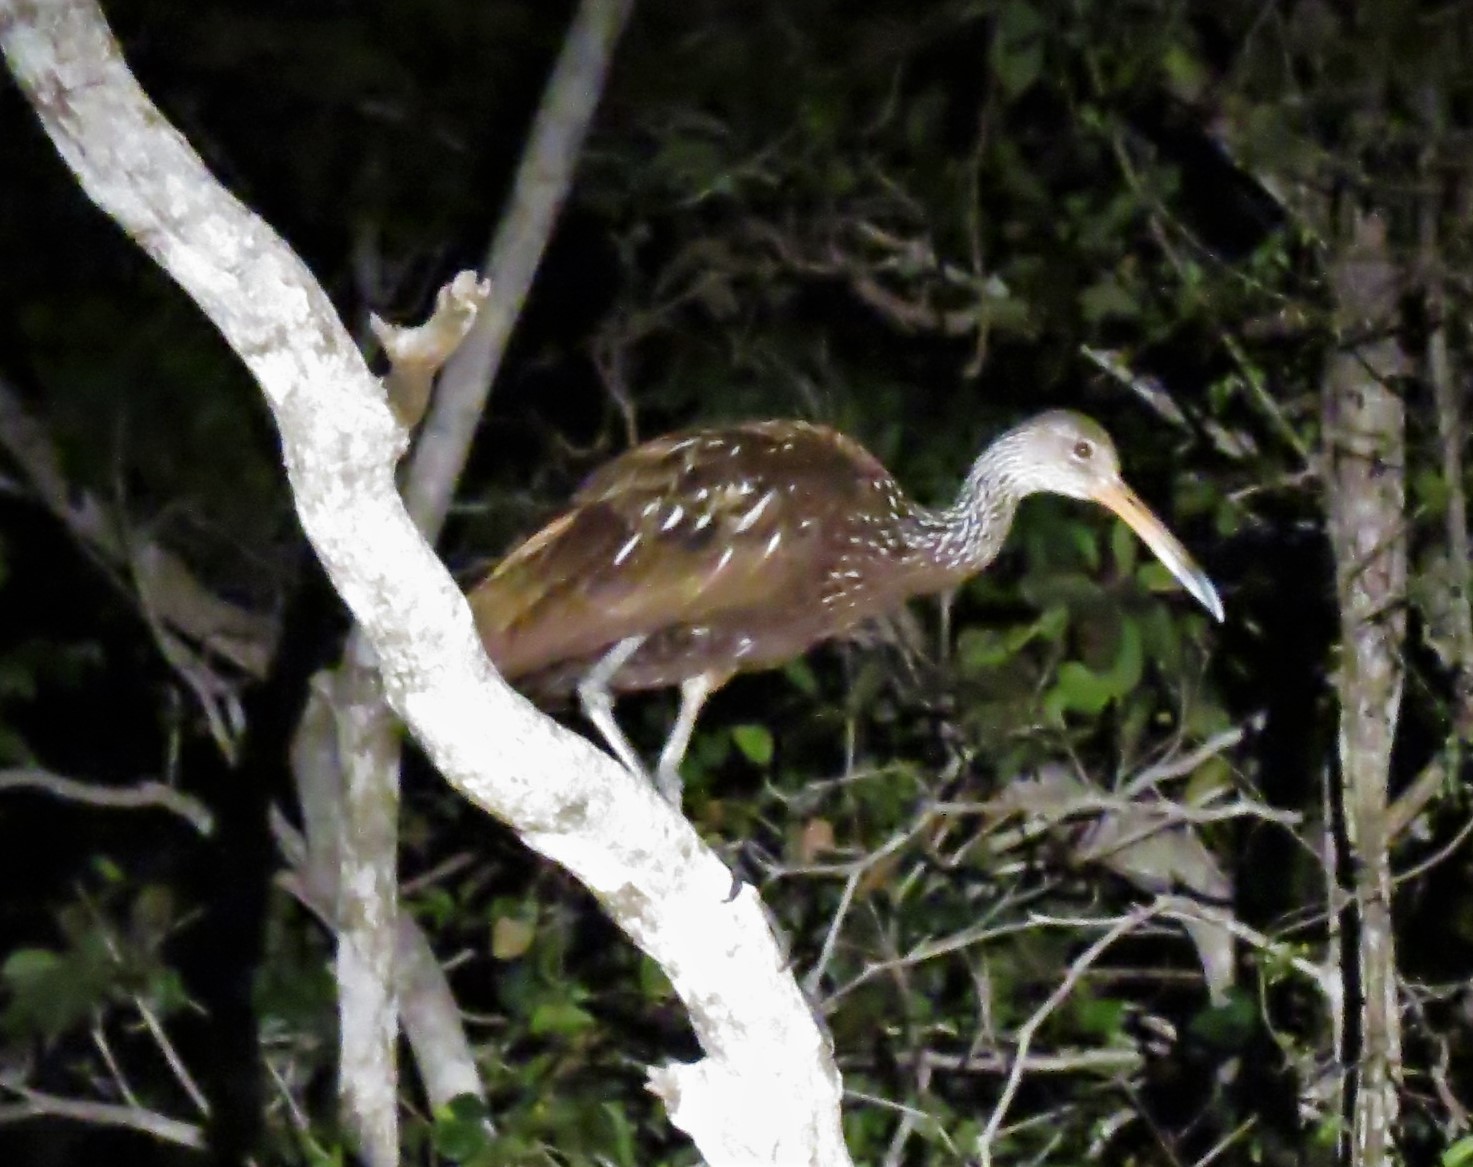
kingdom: Animalia
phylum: Chordata
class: Aves
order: Gruiformes
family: Aramidae
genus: Aramus
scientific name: Aramus guarauna
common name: Limpkin
